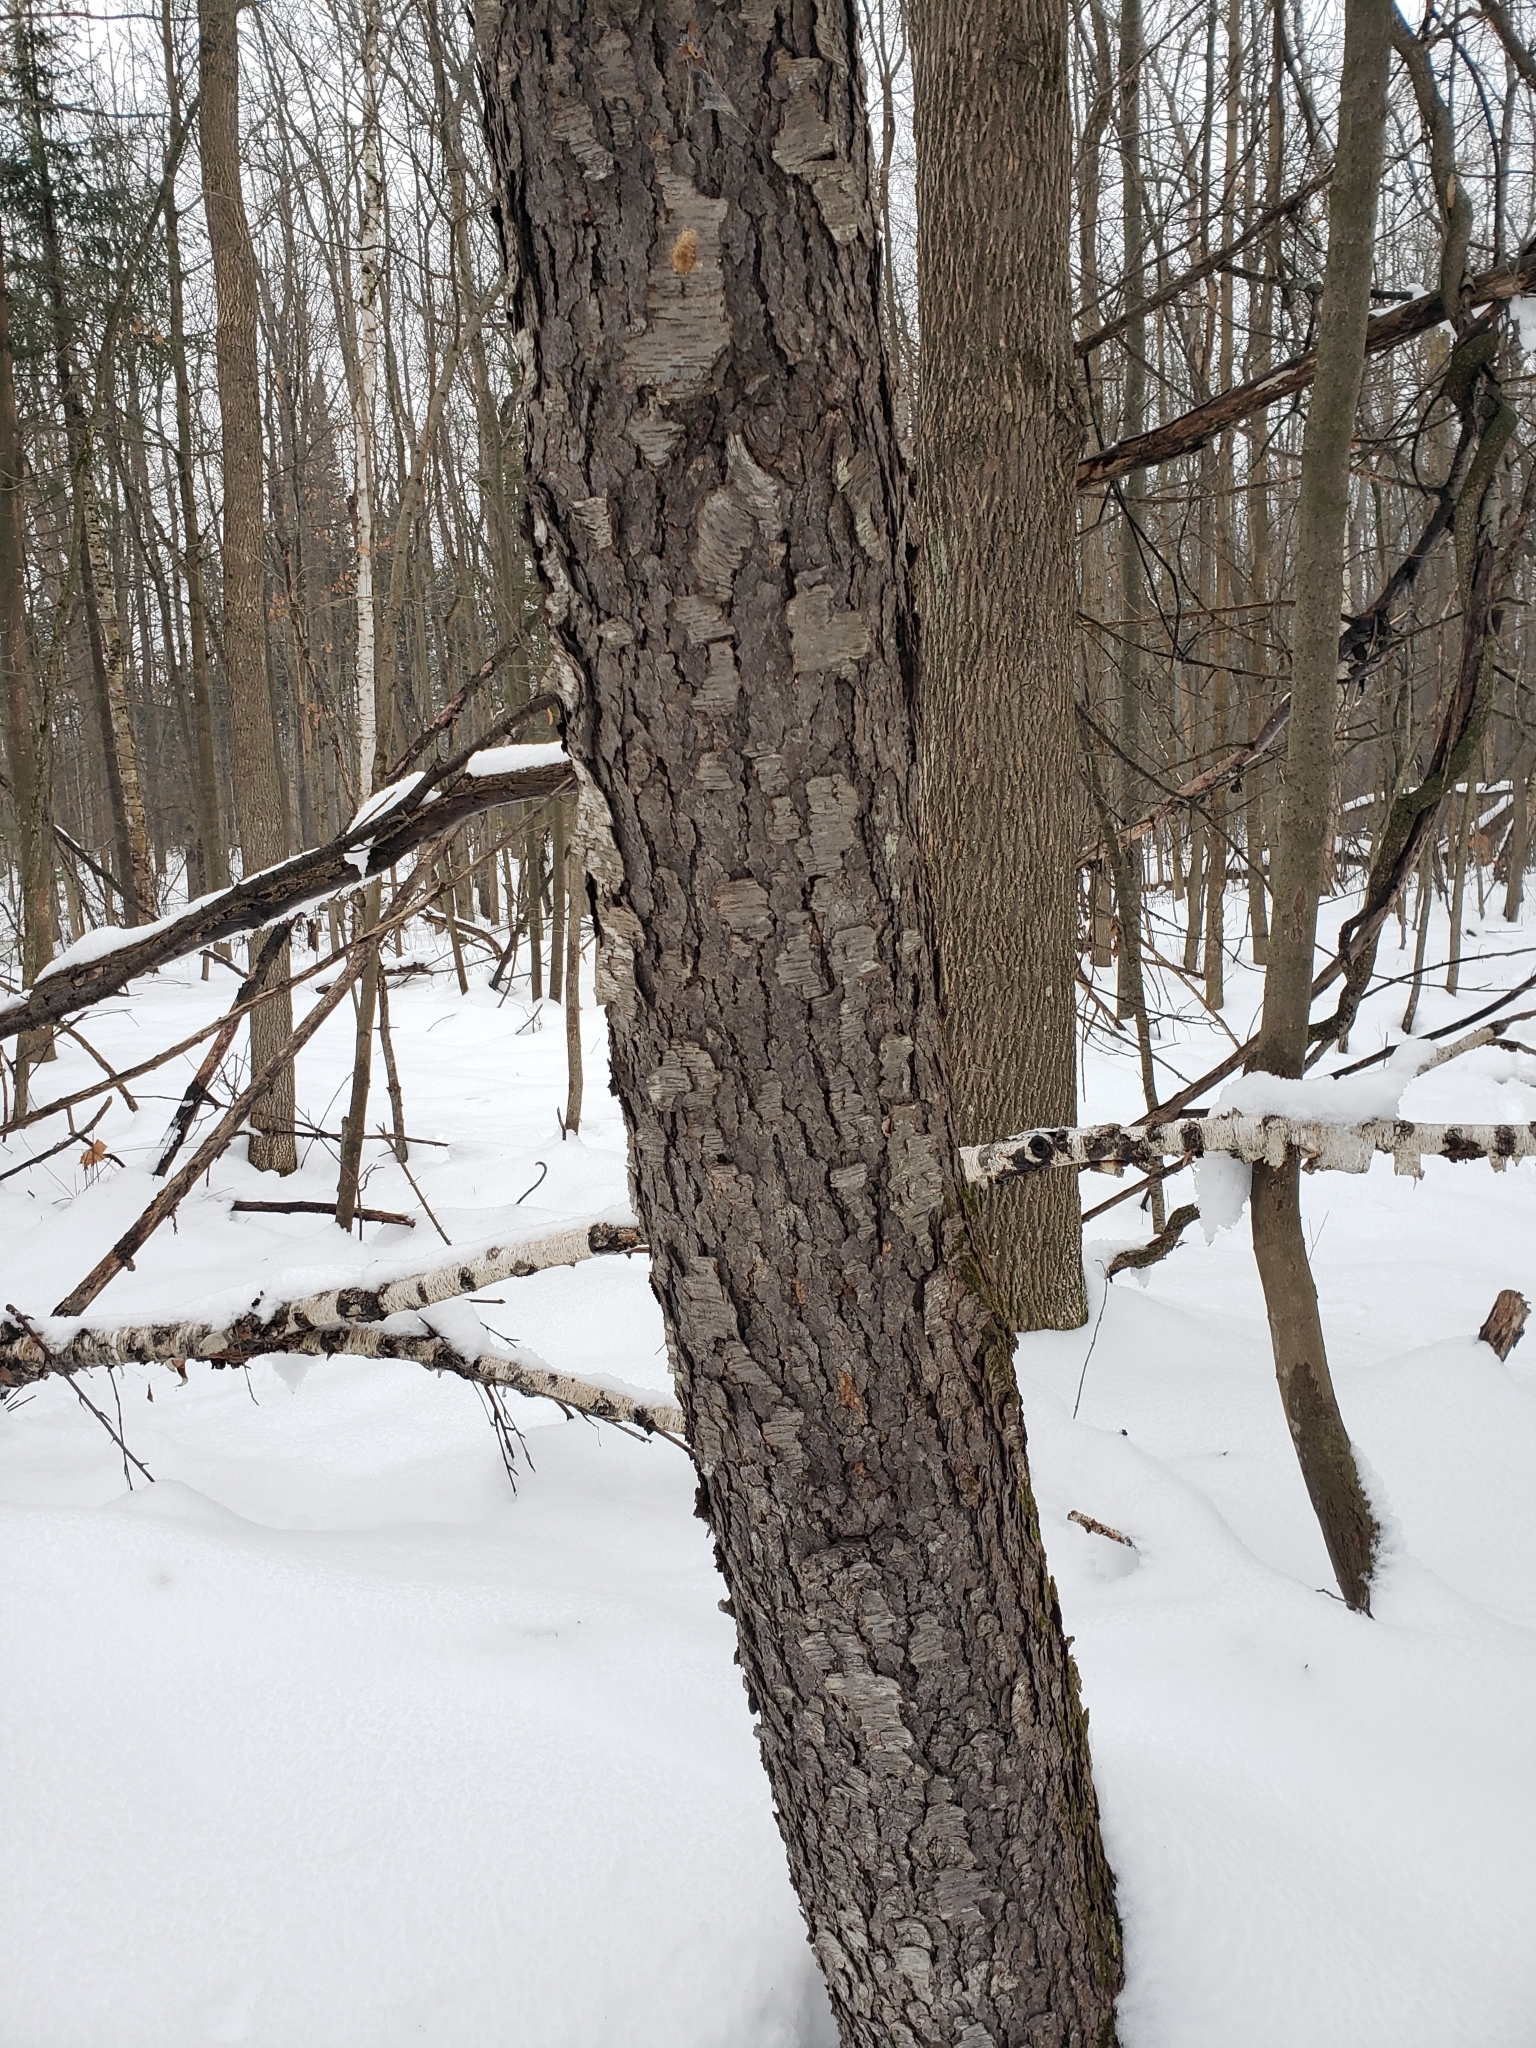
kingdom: Plantae
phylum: Tracheophyta
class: Magnoliopsida
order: Rosales
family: Rosaceae
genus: Prunus
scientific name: Prunus serotina
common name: Black cherry
